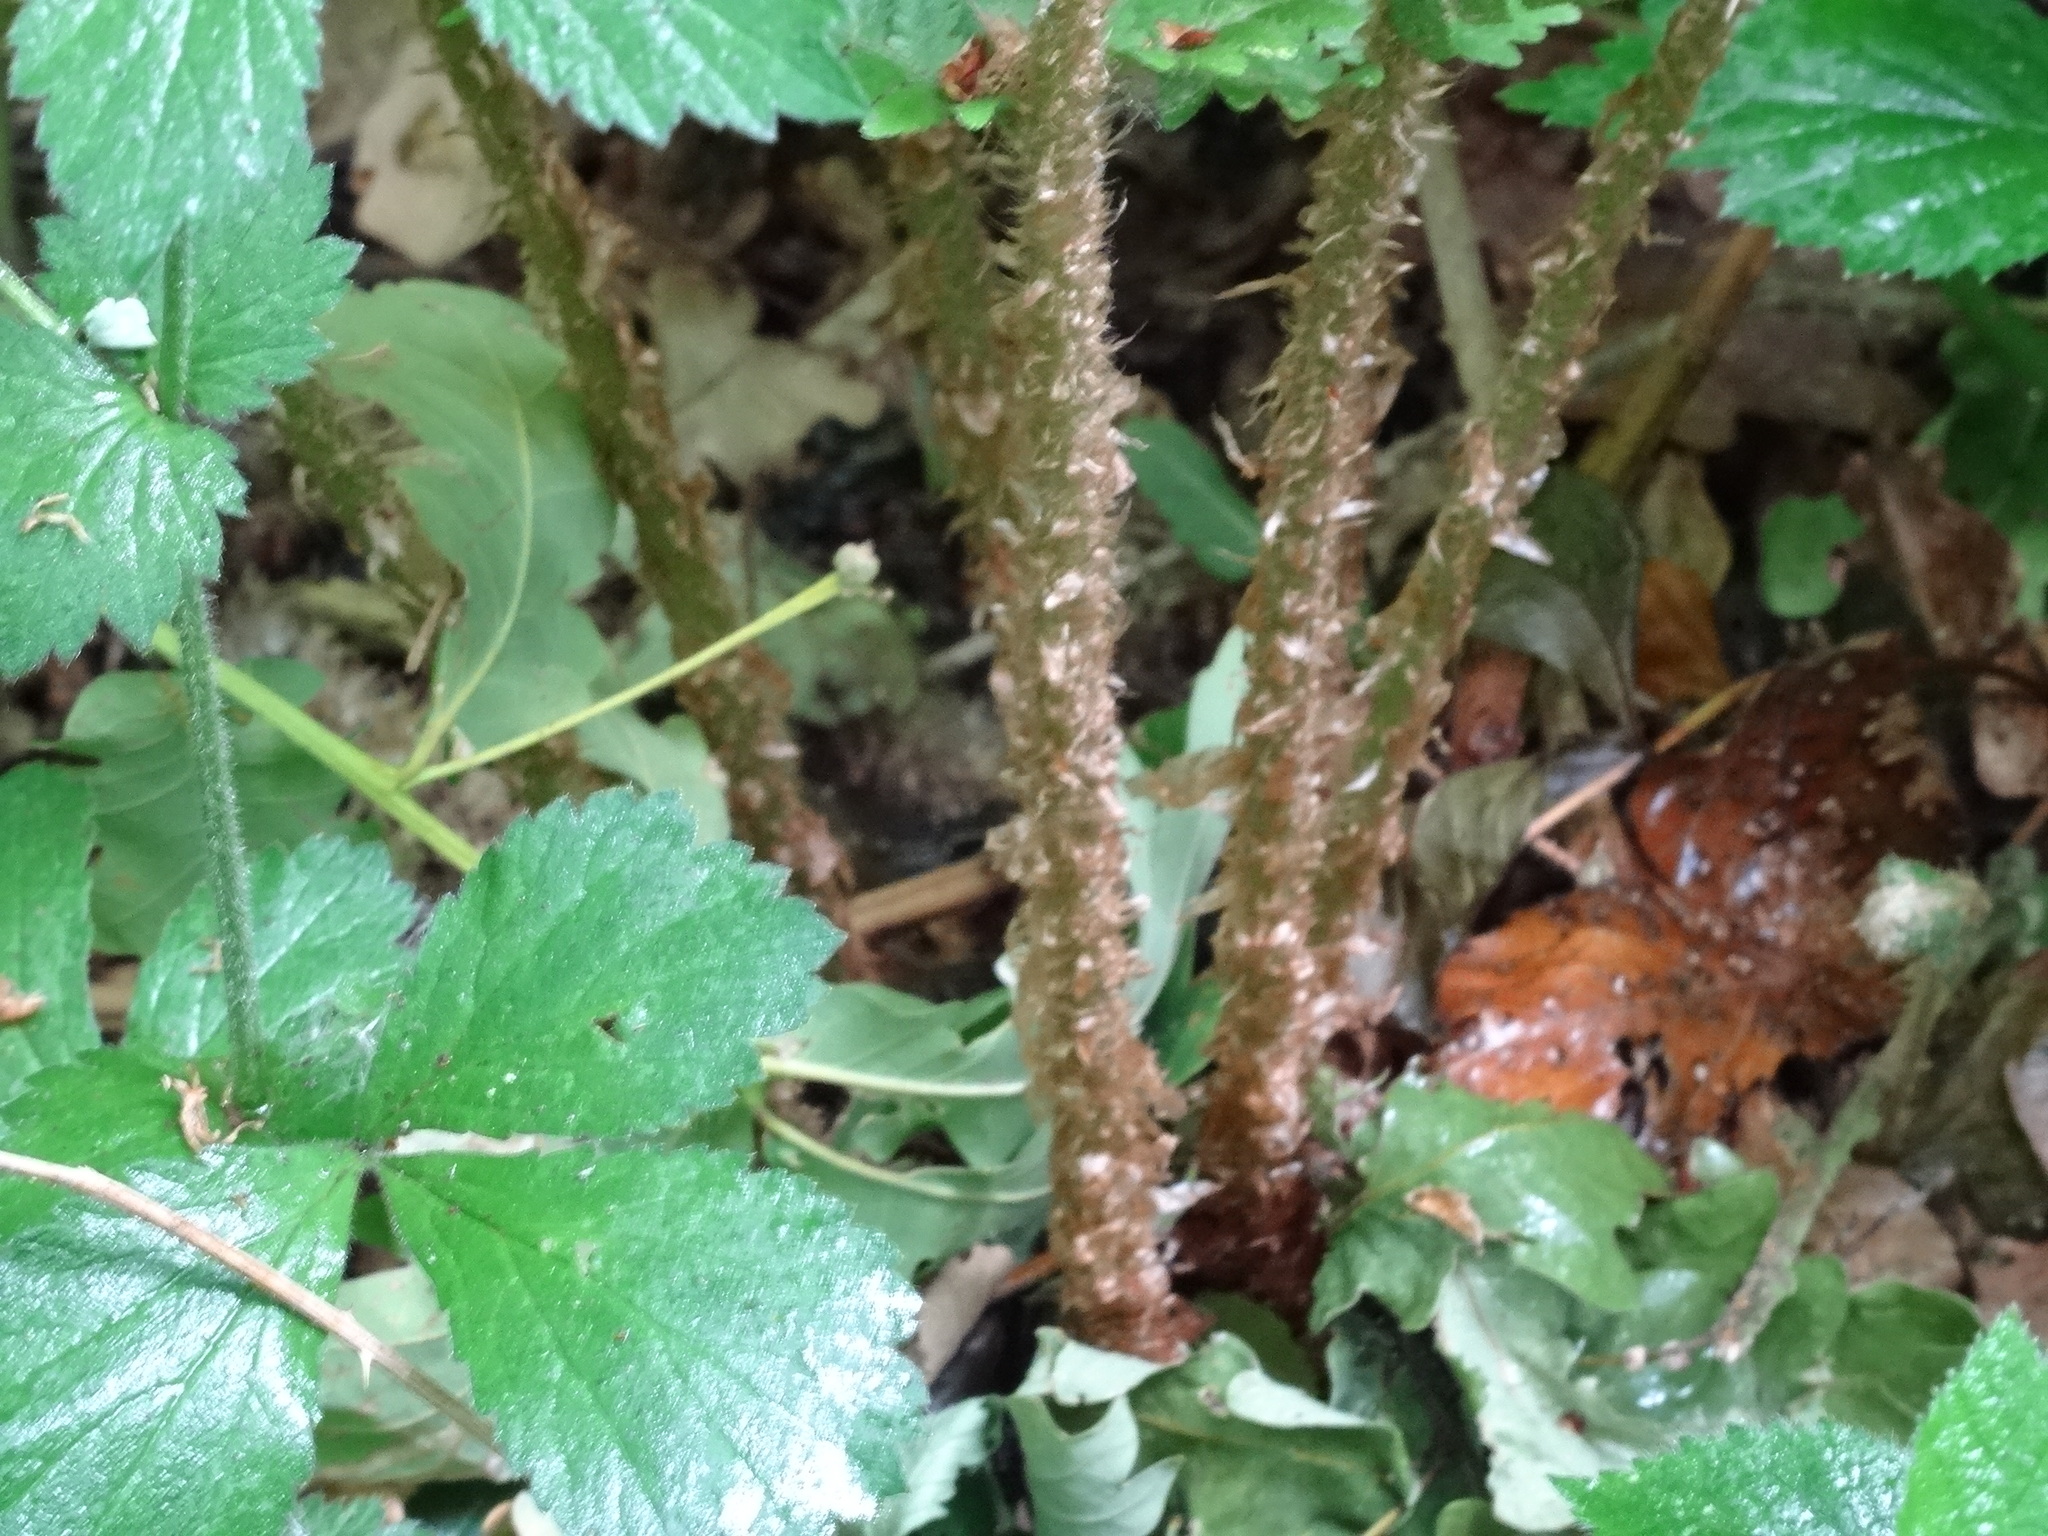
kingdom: Plantae
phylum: Tracheophyta
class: Polypodiopsida
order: Polypodiales
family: Dryopteridaceae
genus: Dryopteris
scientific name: Dryopteris filix-mas
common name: Male fern
